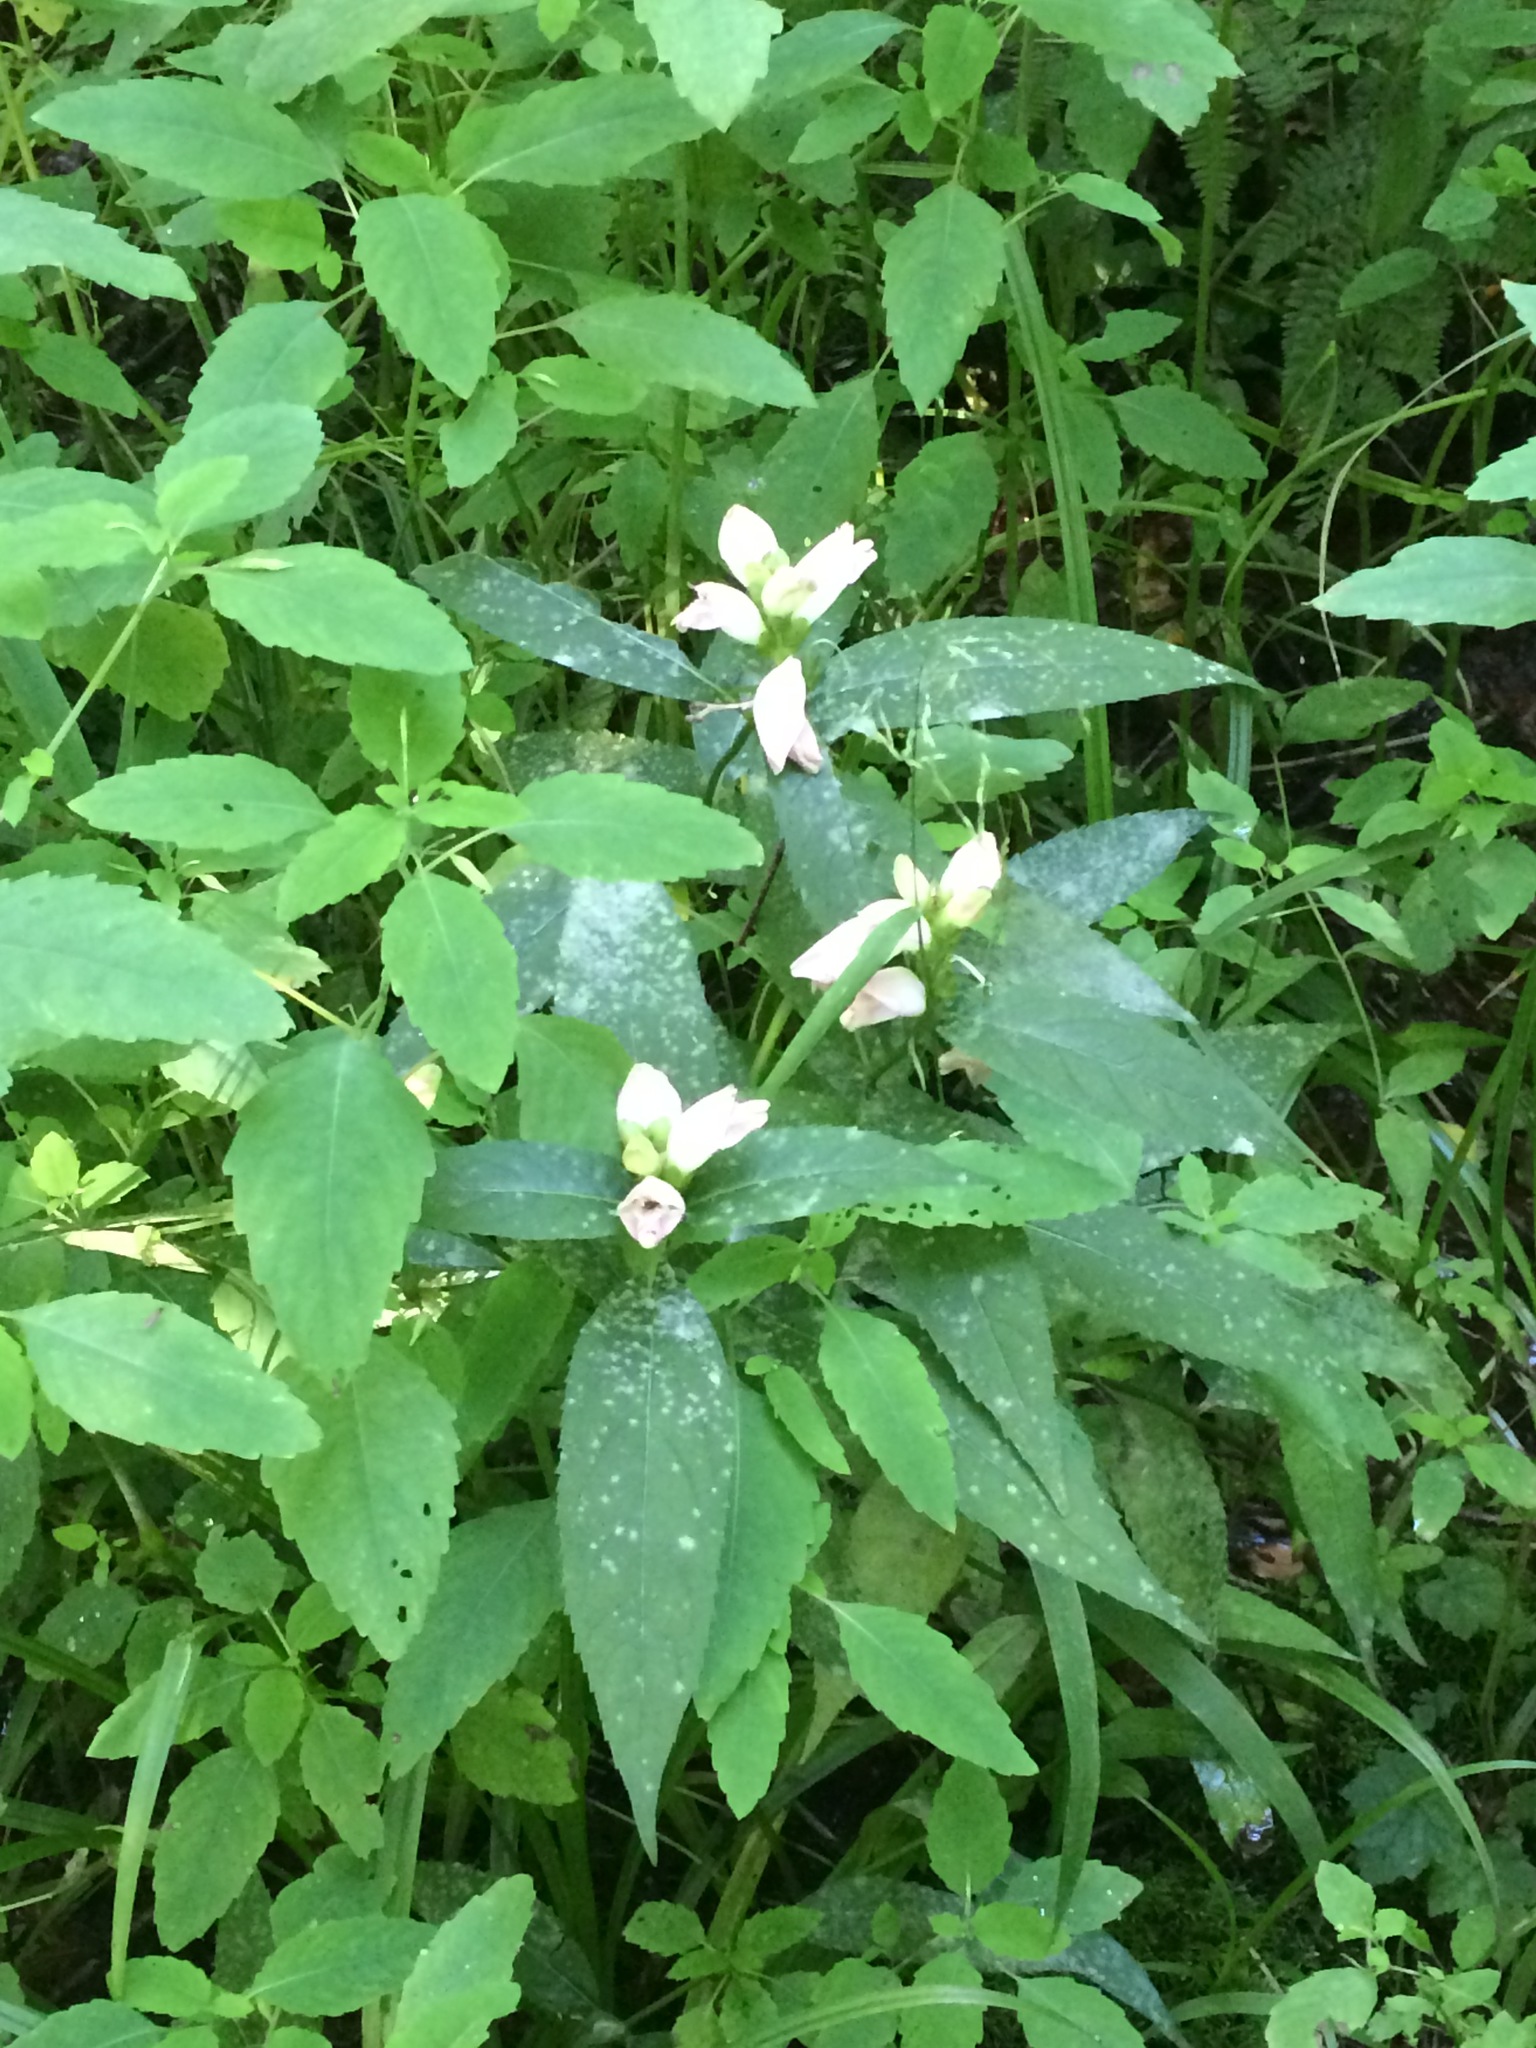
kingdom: Plantae
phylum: Tracheophyta
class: Magnoliopsida
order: Lamiales
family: Plantaginaceae
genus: Chelone
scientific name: Chelone glabra
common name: Snakehead
